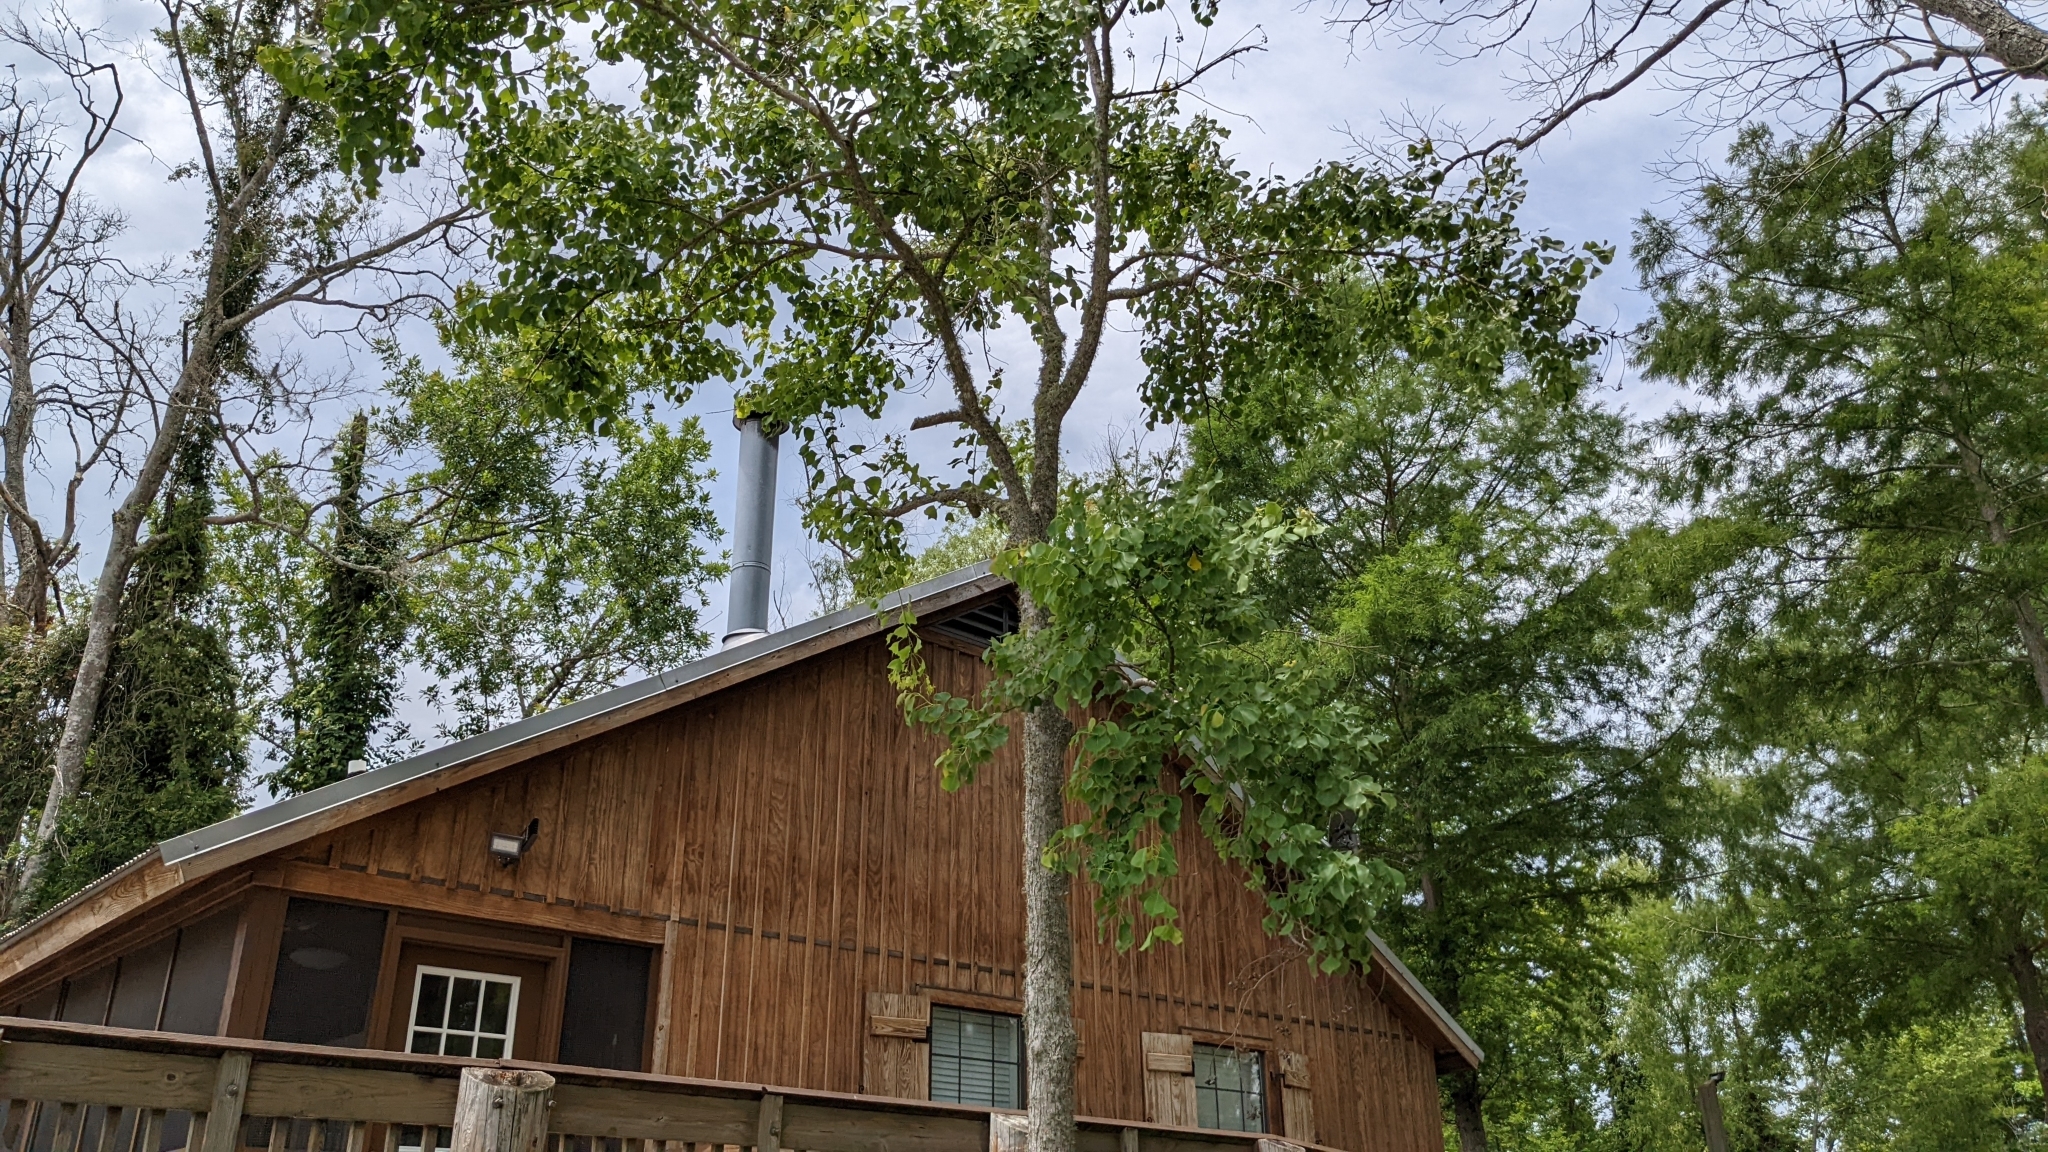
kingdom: Plantae
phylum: Tracheophyta
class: Magnoliopsida
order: Malpighiales
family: Euphorbiaceae
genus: Triadica
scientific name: Triadica sebifera
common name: Chinese tallow
